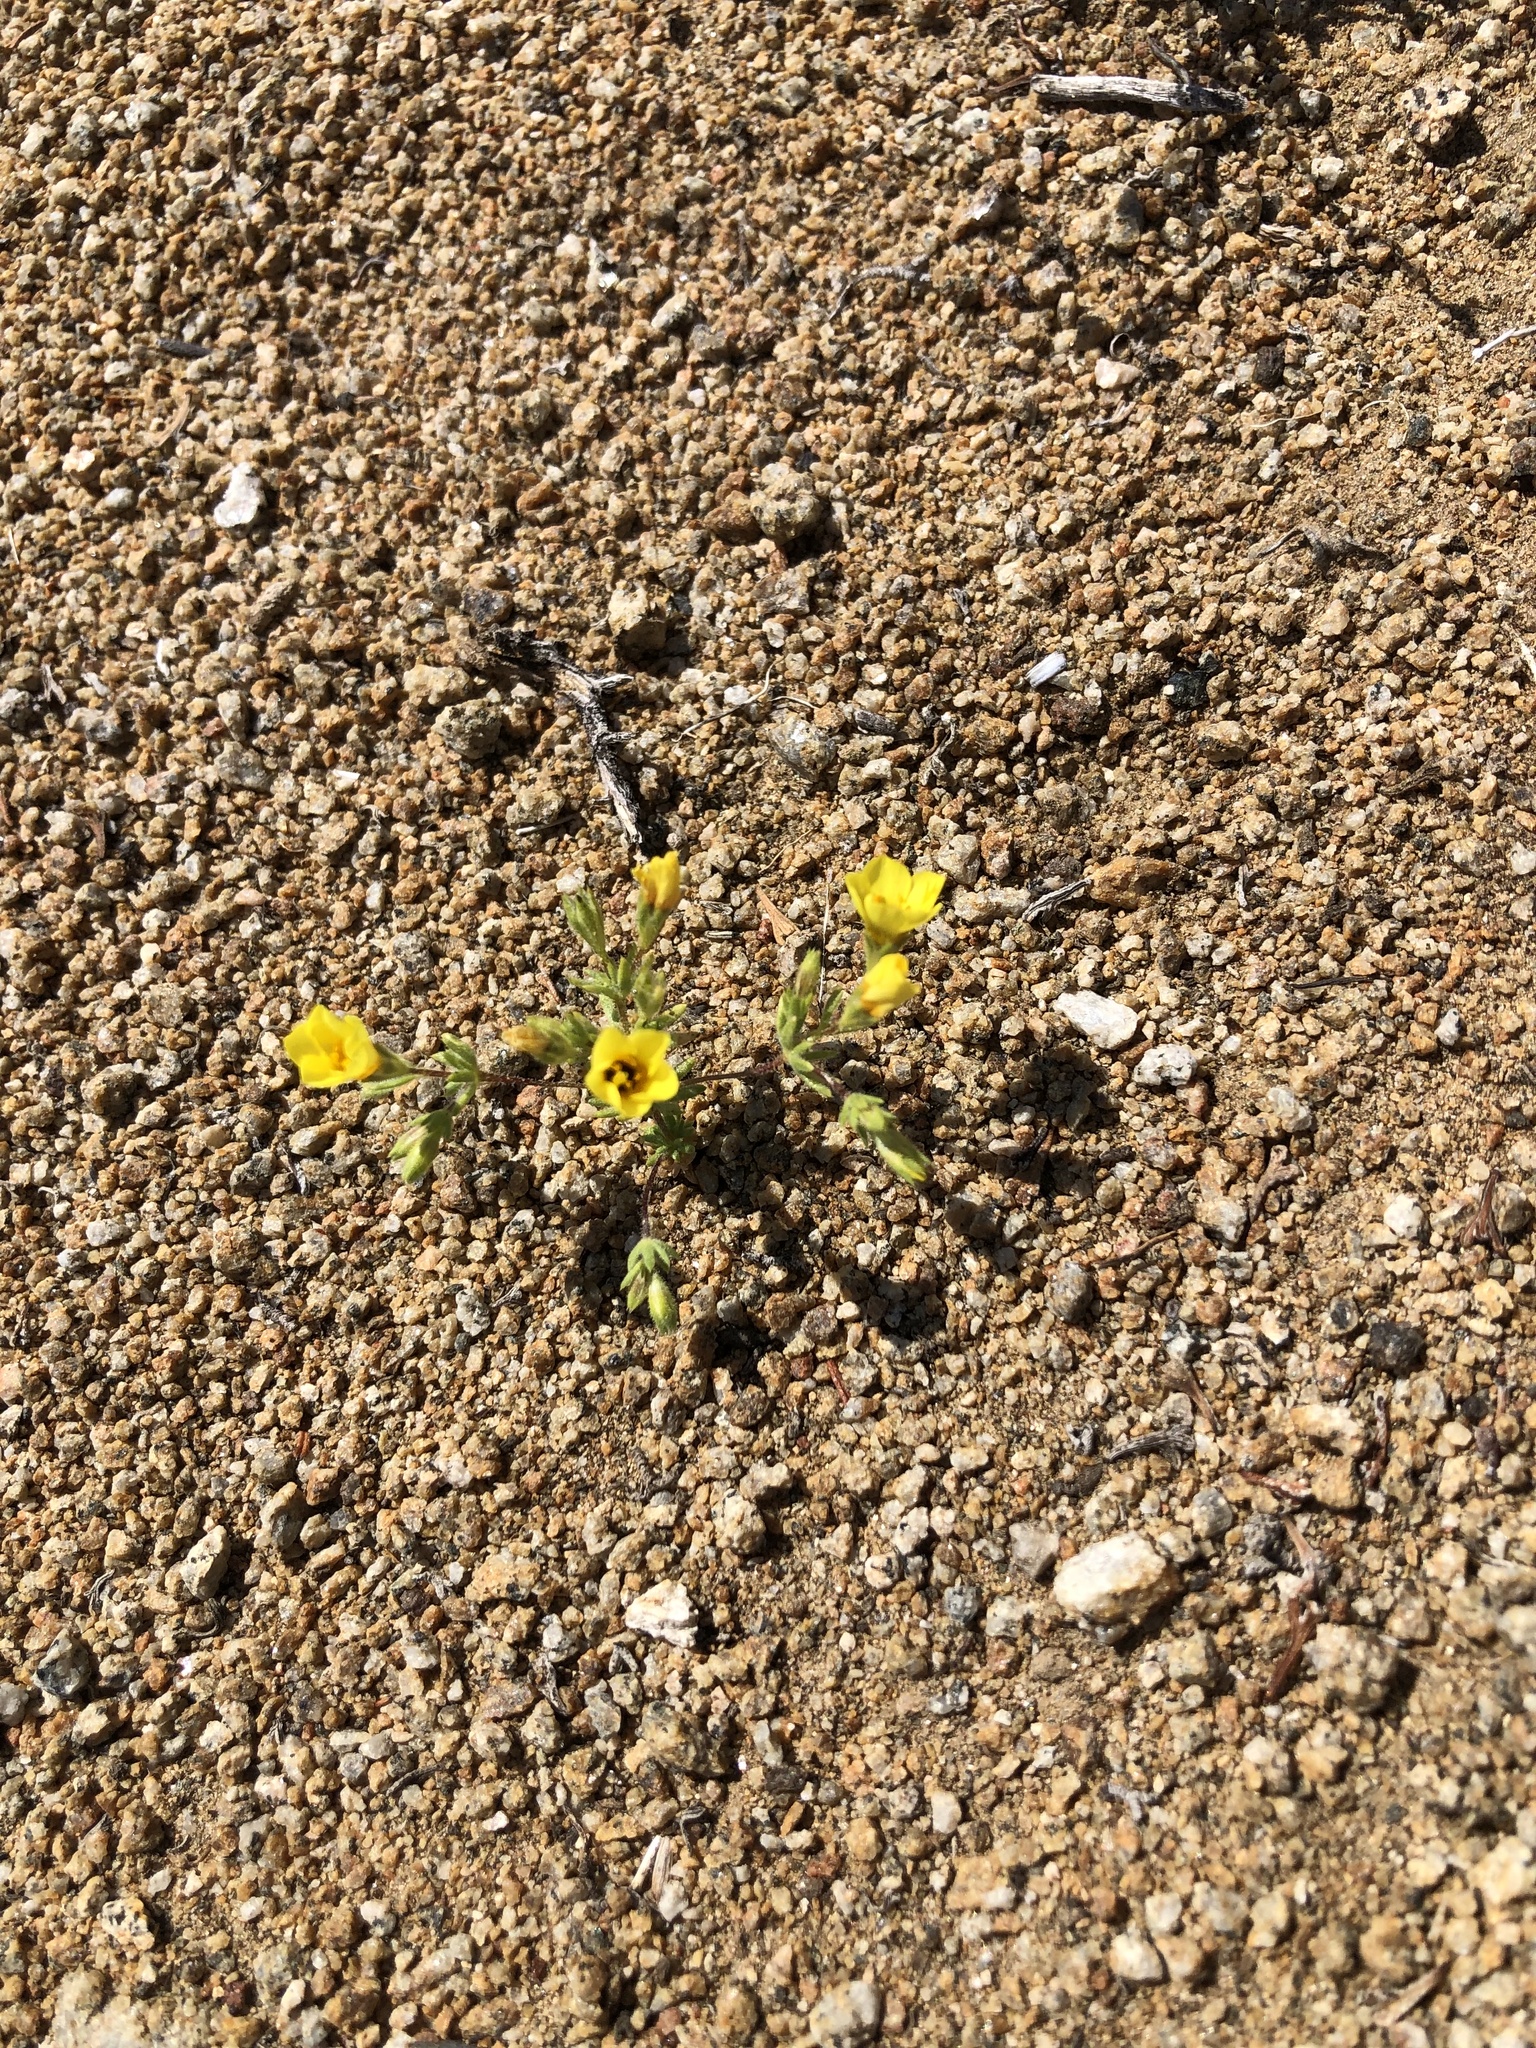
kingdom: Plantae
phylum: Tracheophyta
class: Magnoliopsida
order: Ericales
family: Polemoniaceae
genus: Leptosiphon
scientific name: Leptosiphon chrysanthus
